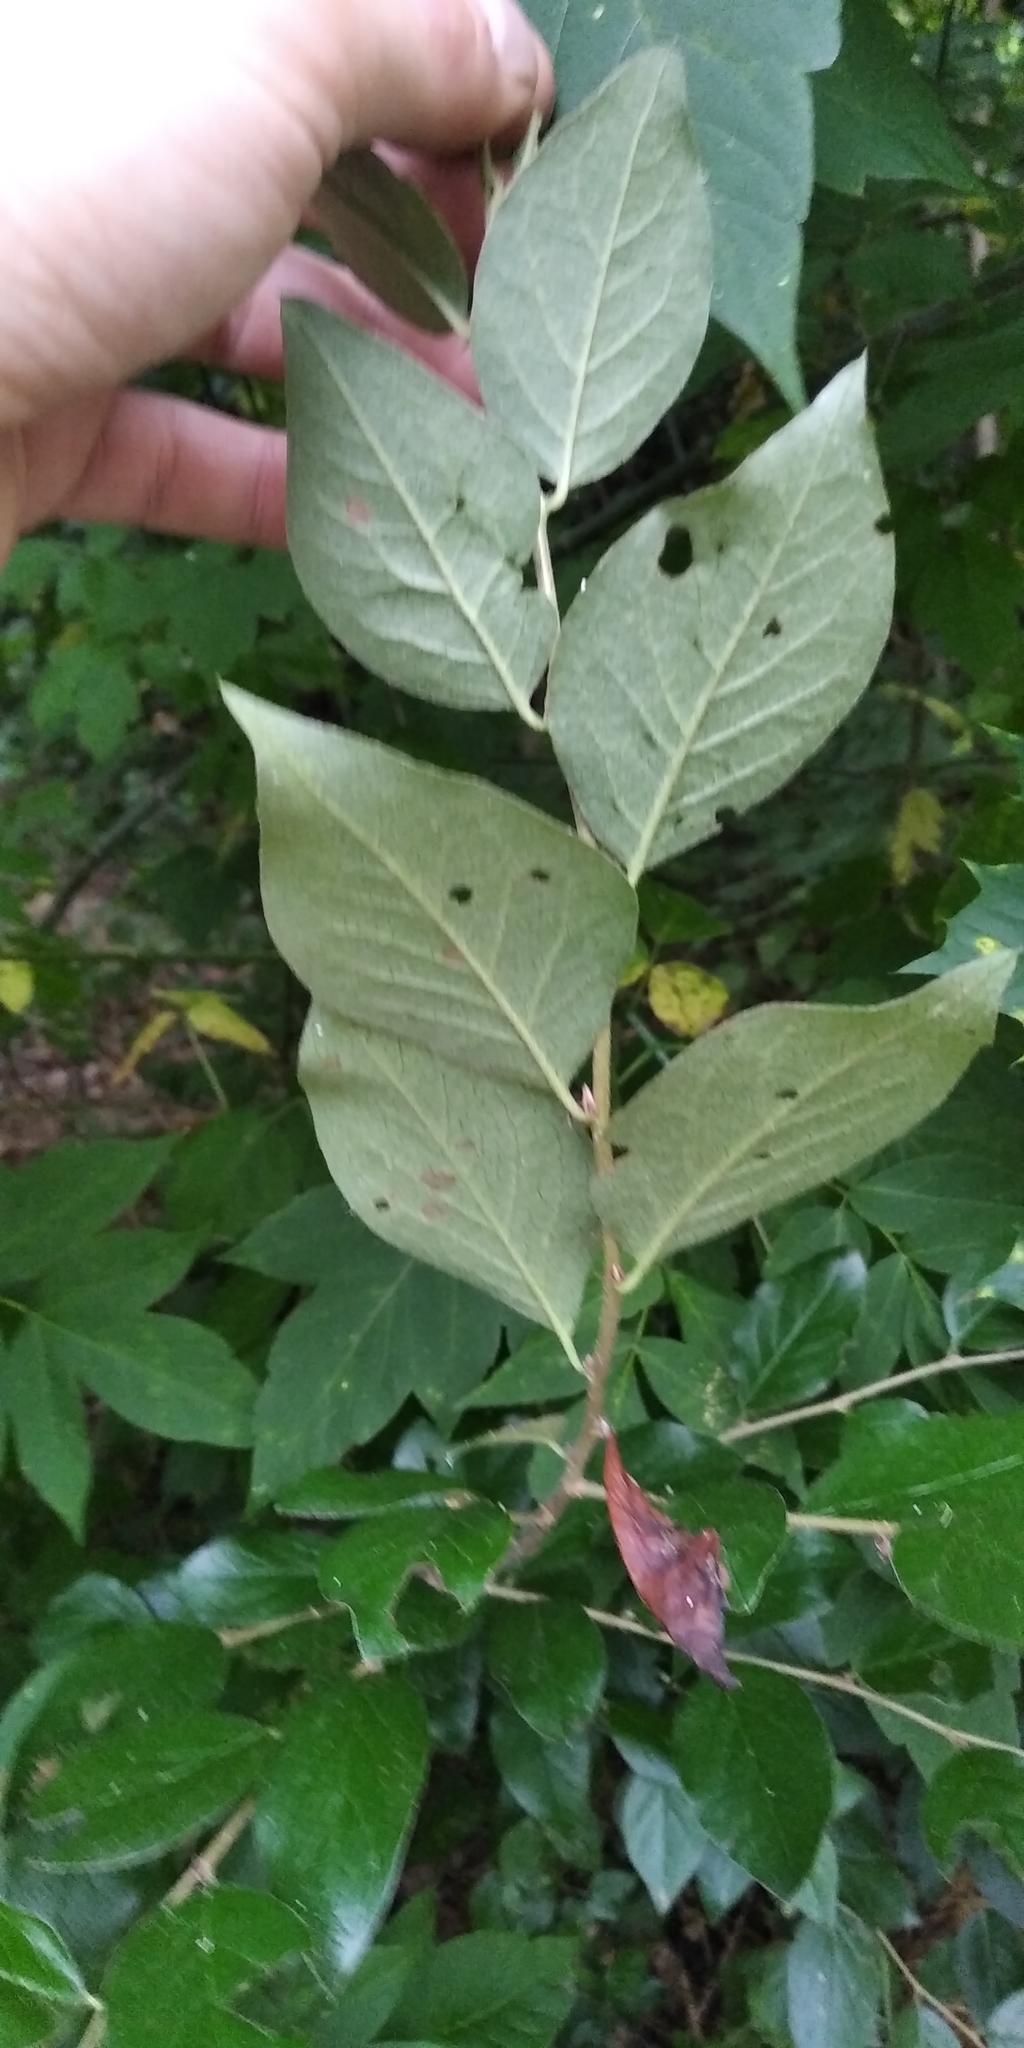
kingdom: Plantae
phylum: Tracheophyta
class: Magnoliopsida
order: Rosales
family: Rosaceae
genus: Cotoneaster
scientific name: Cotoneaster acutifolius
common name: Peking cotoneaster
